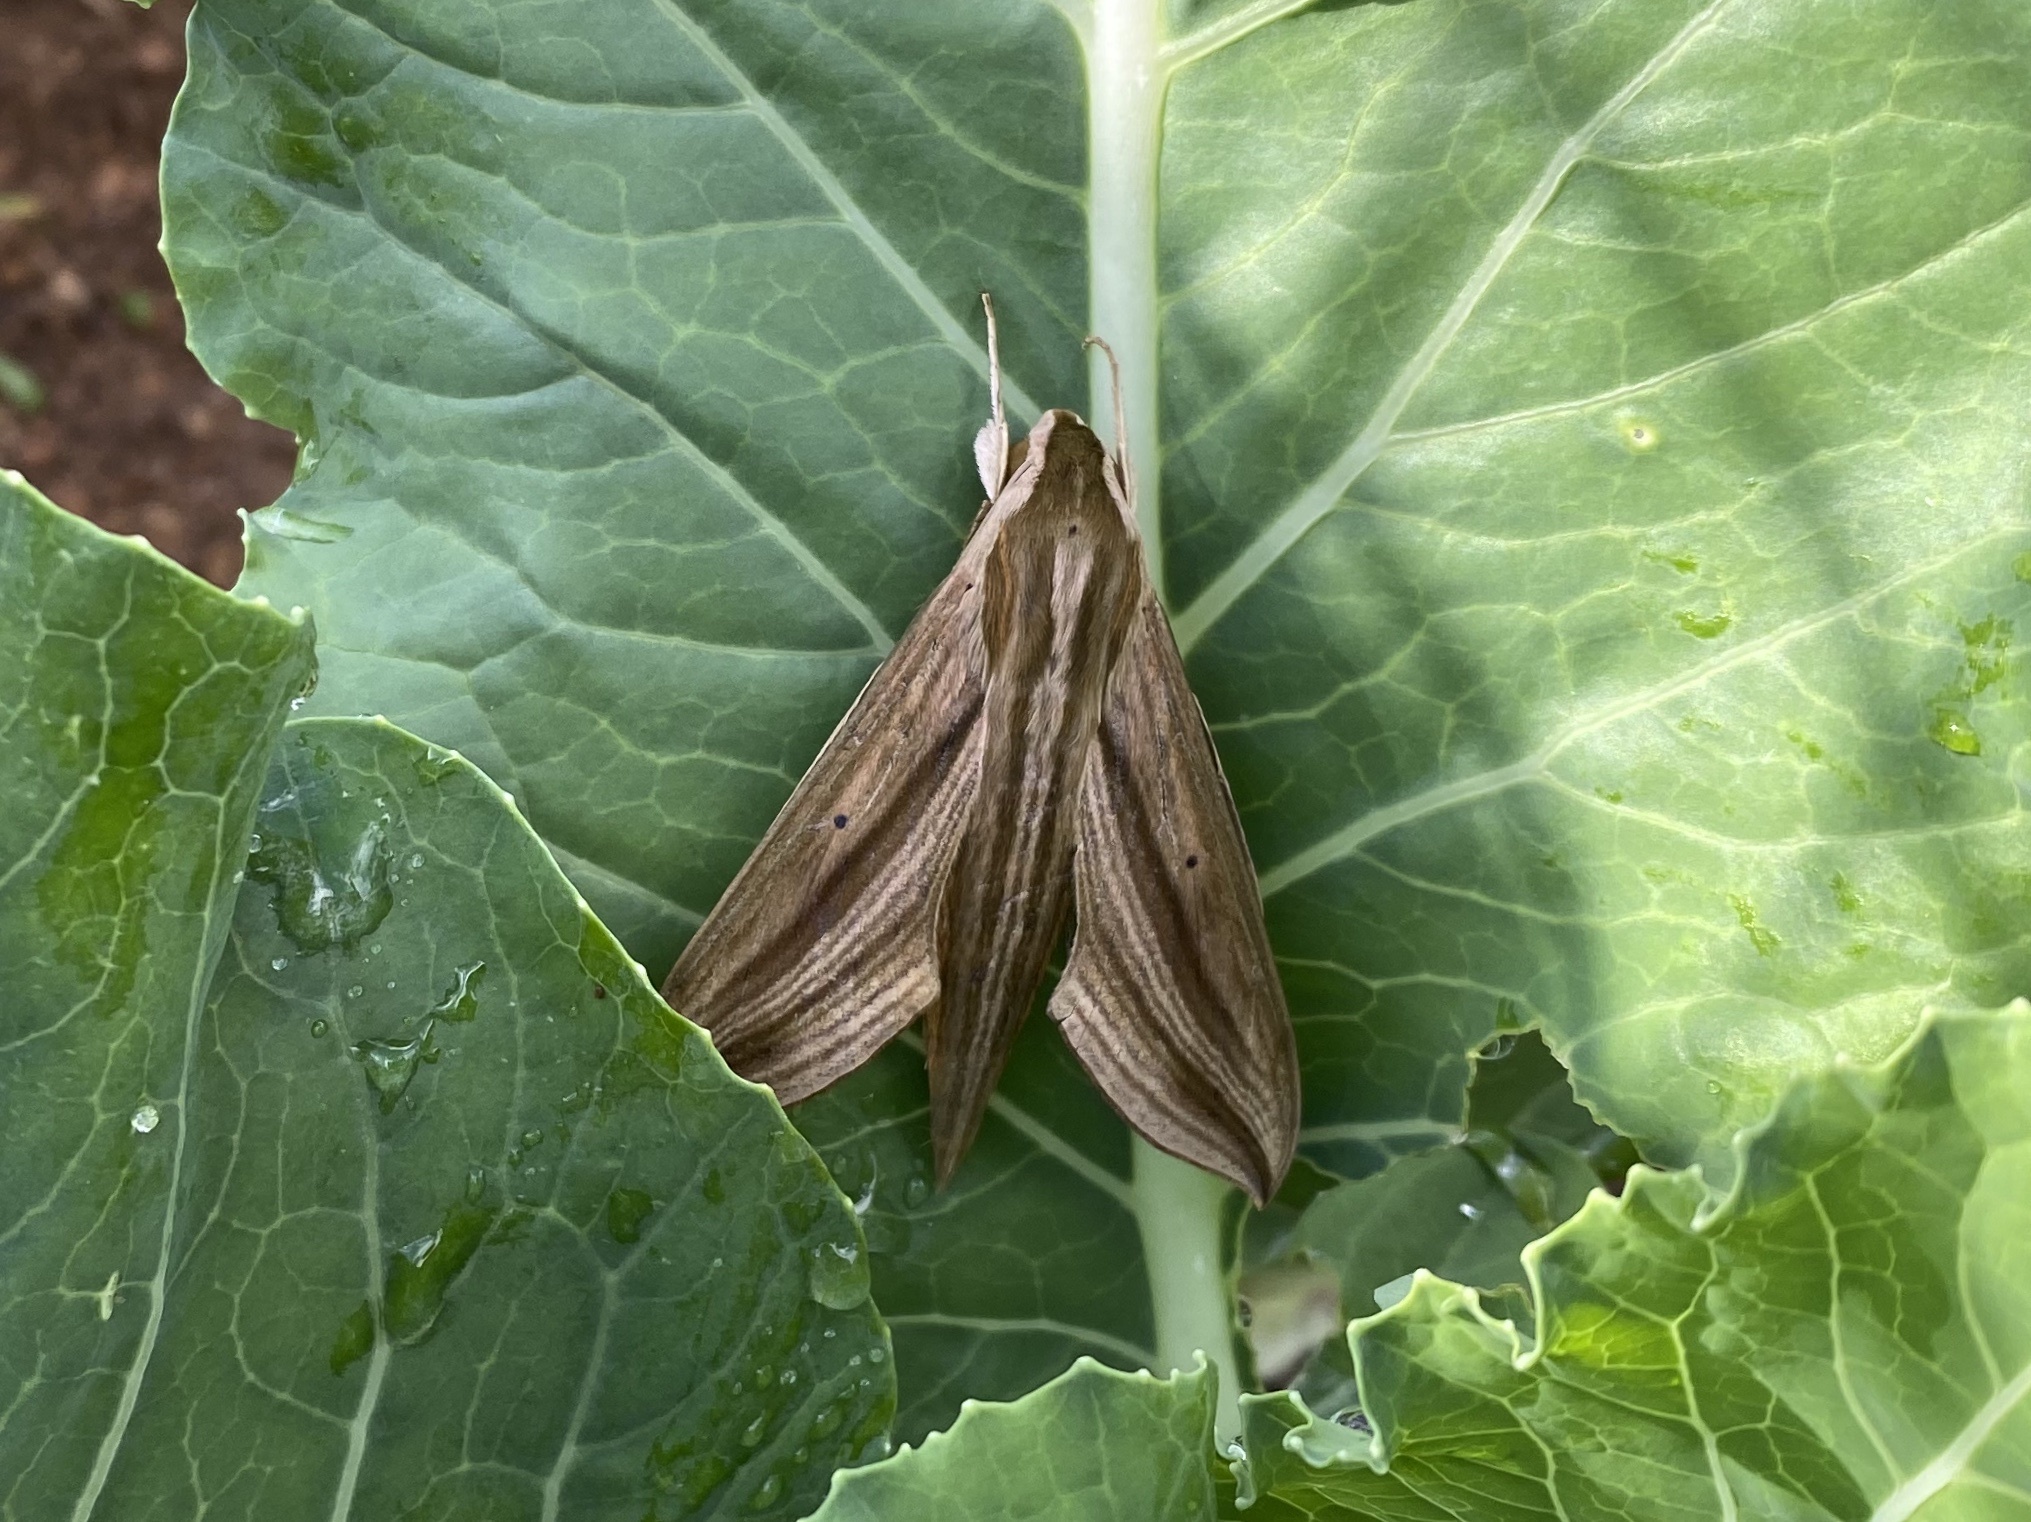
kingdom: Animalia
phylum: Arthropoda
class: Insecta
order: Lepidoptera
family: Sphingidae
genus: Hippotion
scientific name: Hippotion eson
